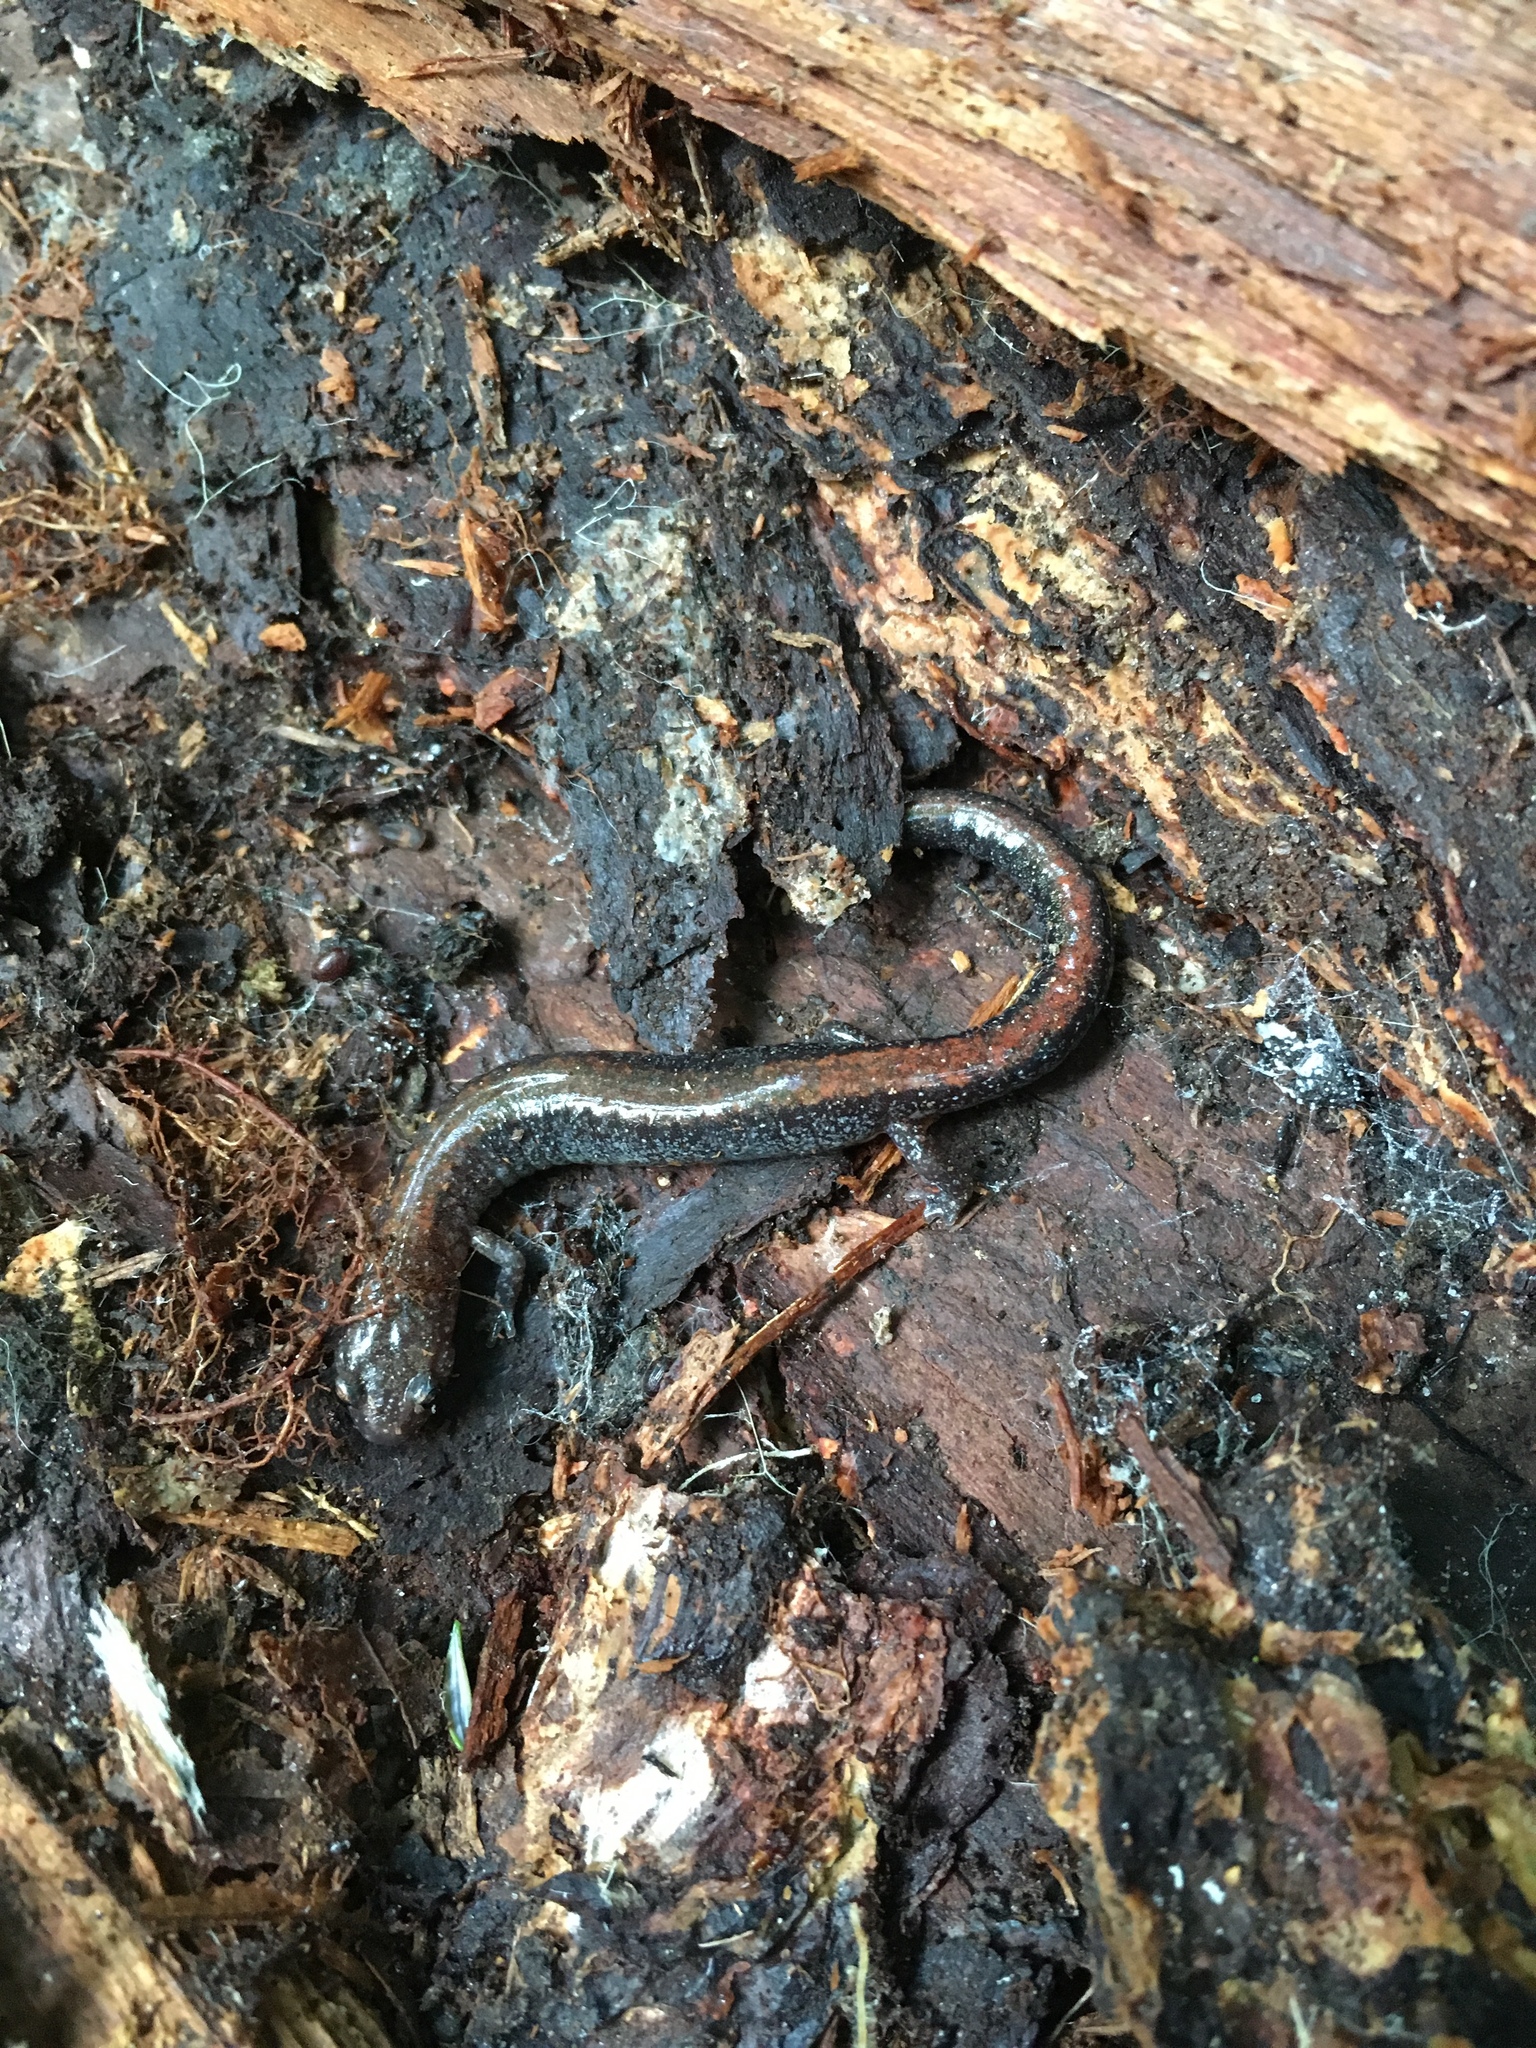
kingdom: Animalia
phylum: Chordata
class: Amphibia
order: Caudata
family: Plethodontidae
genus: Plethodon
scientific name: Plethodon cinereus
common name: Redback salamander
